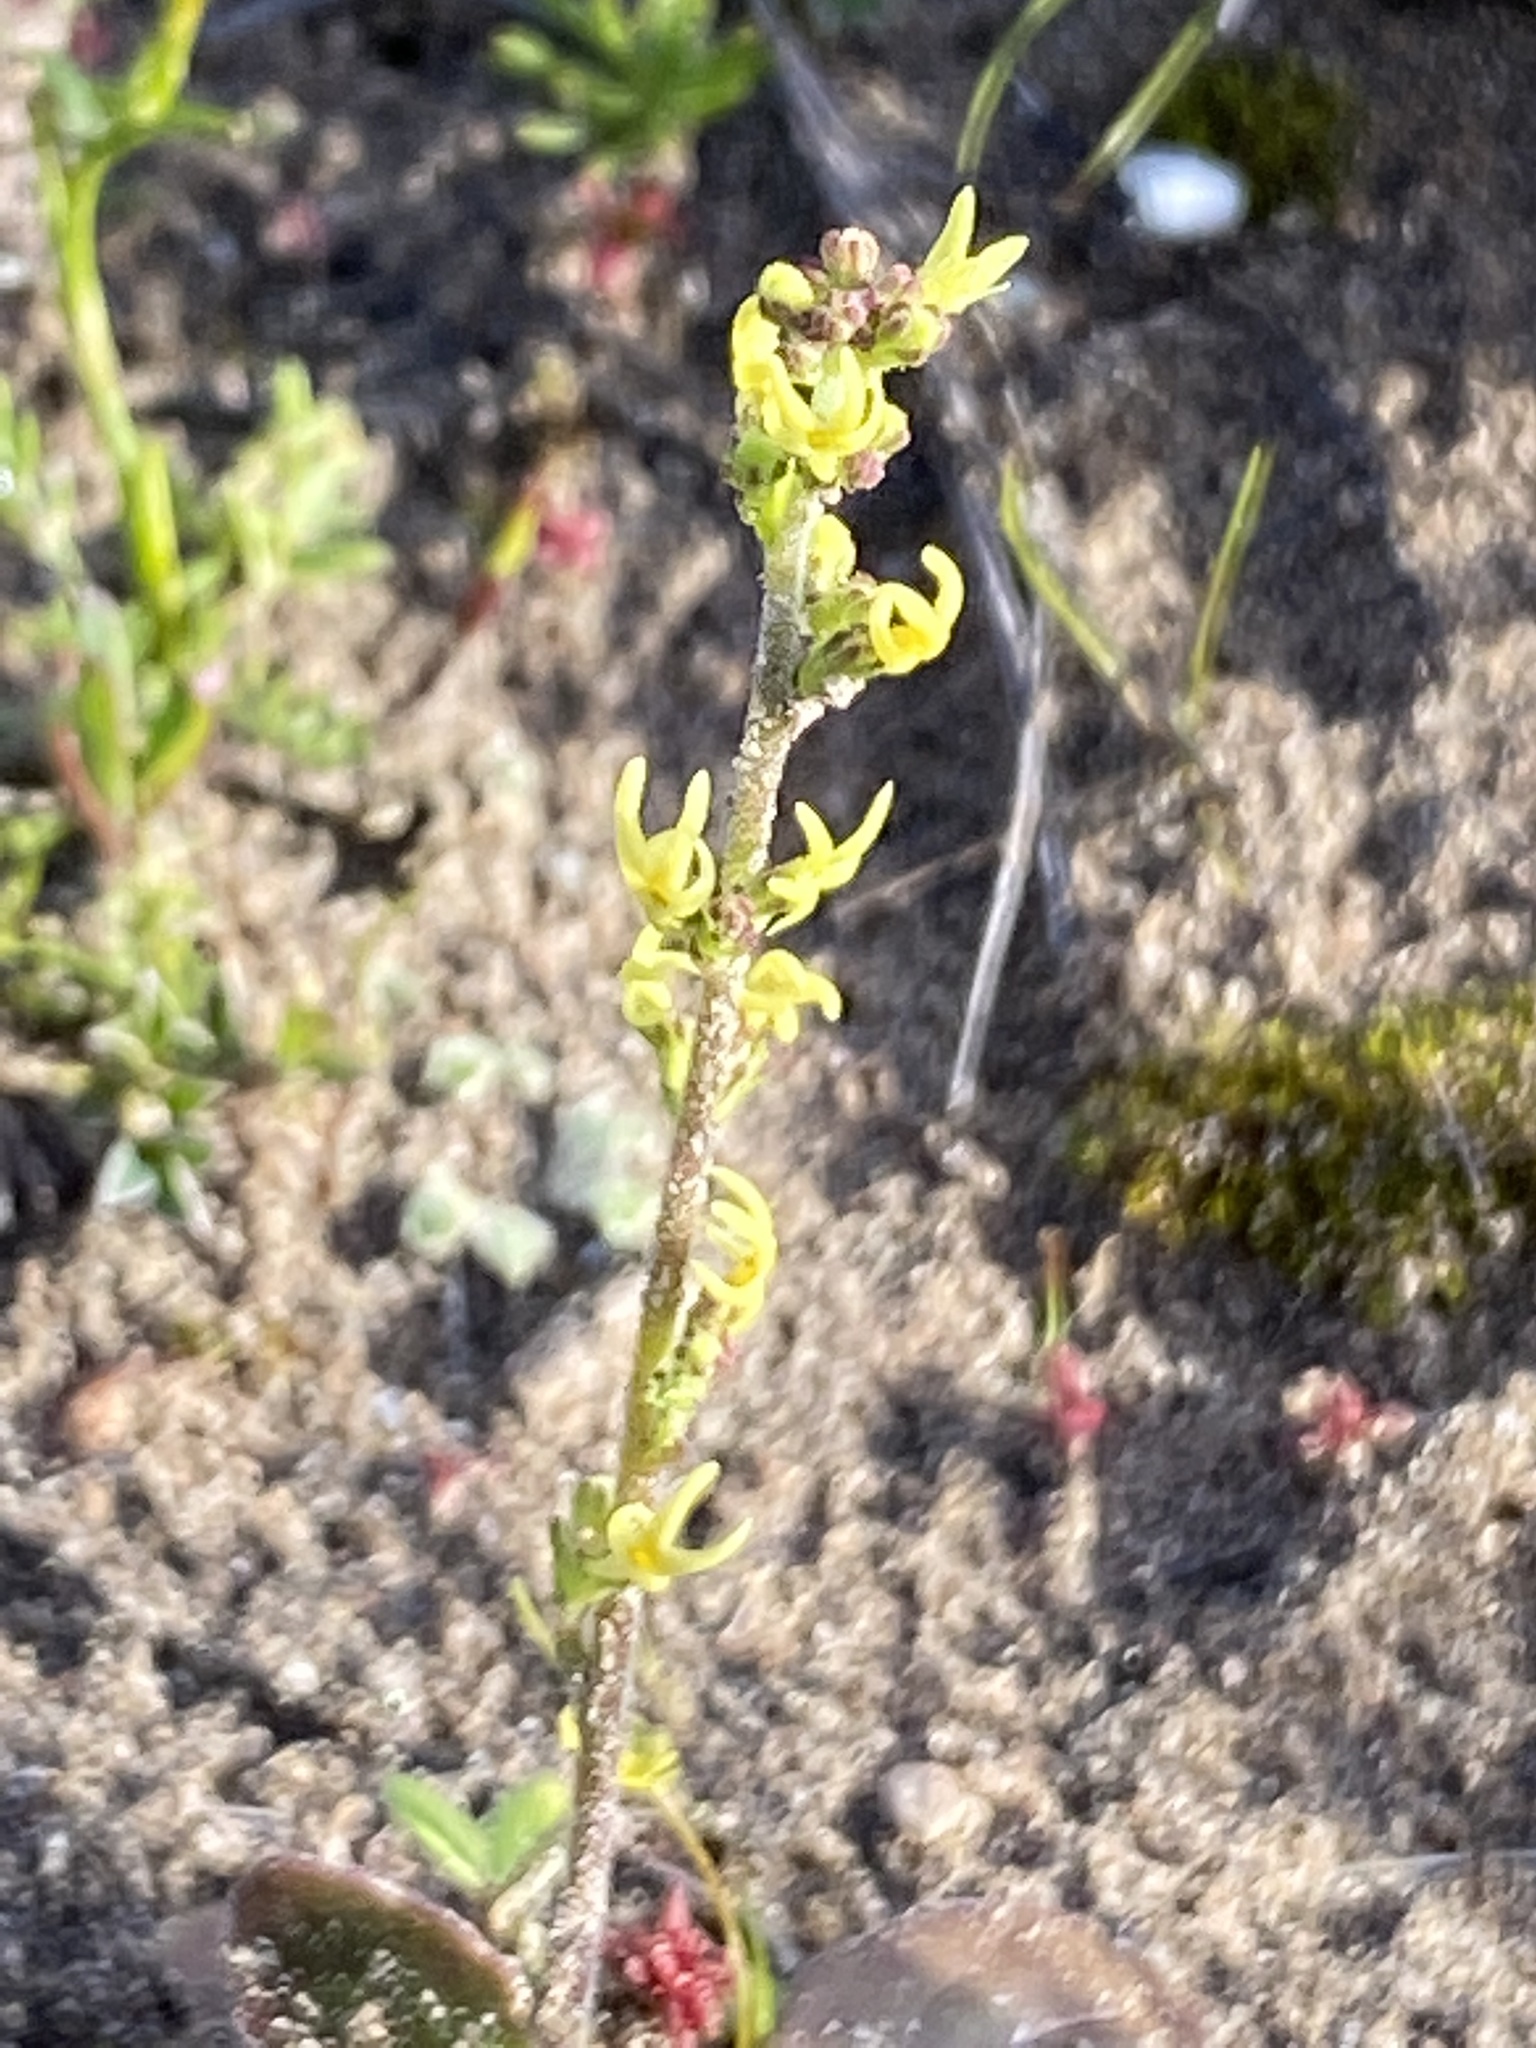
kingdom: Plantae
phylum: Tracheophyta
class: Magnoliopsida
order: Lamiales
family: Scrophulariaceae
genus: Manulea
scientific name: Manulea cheiranthus
